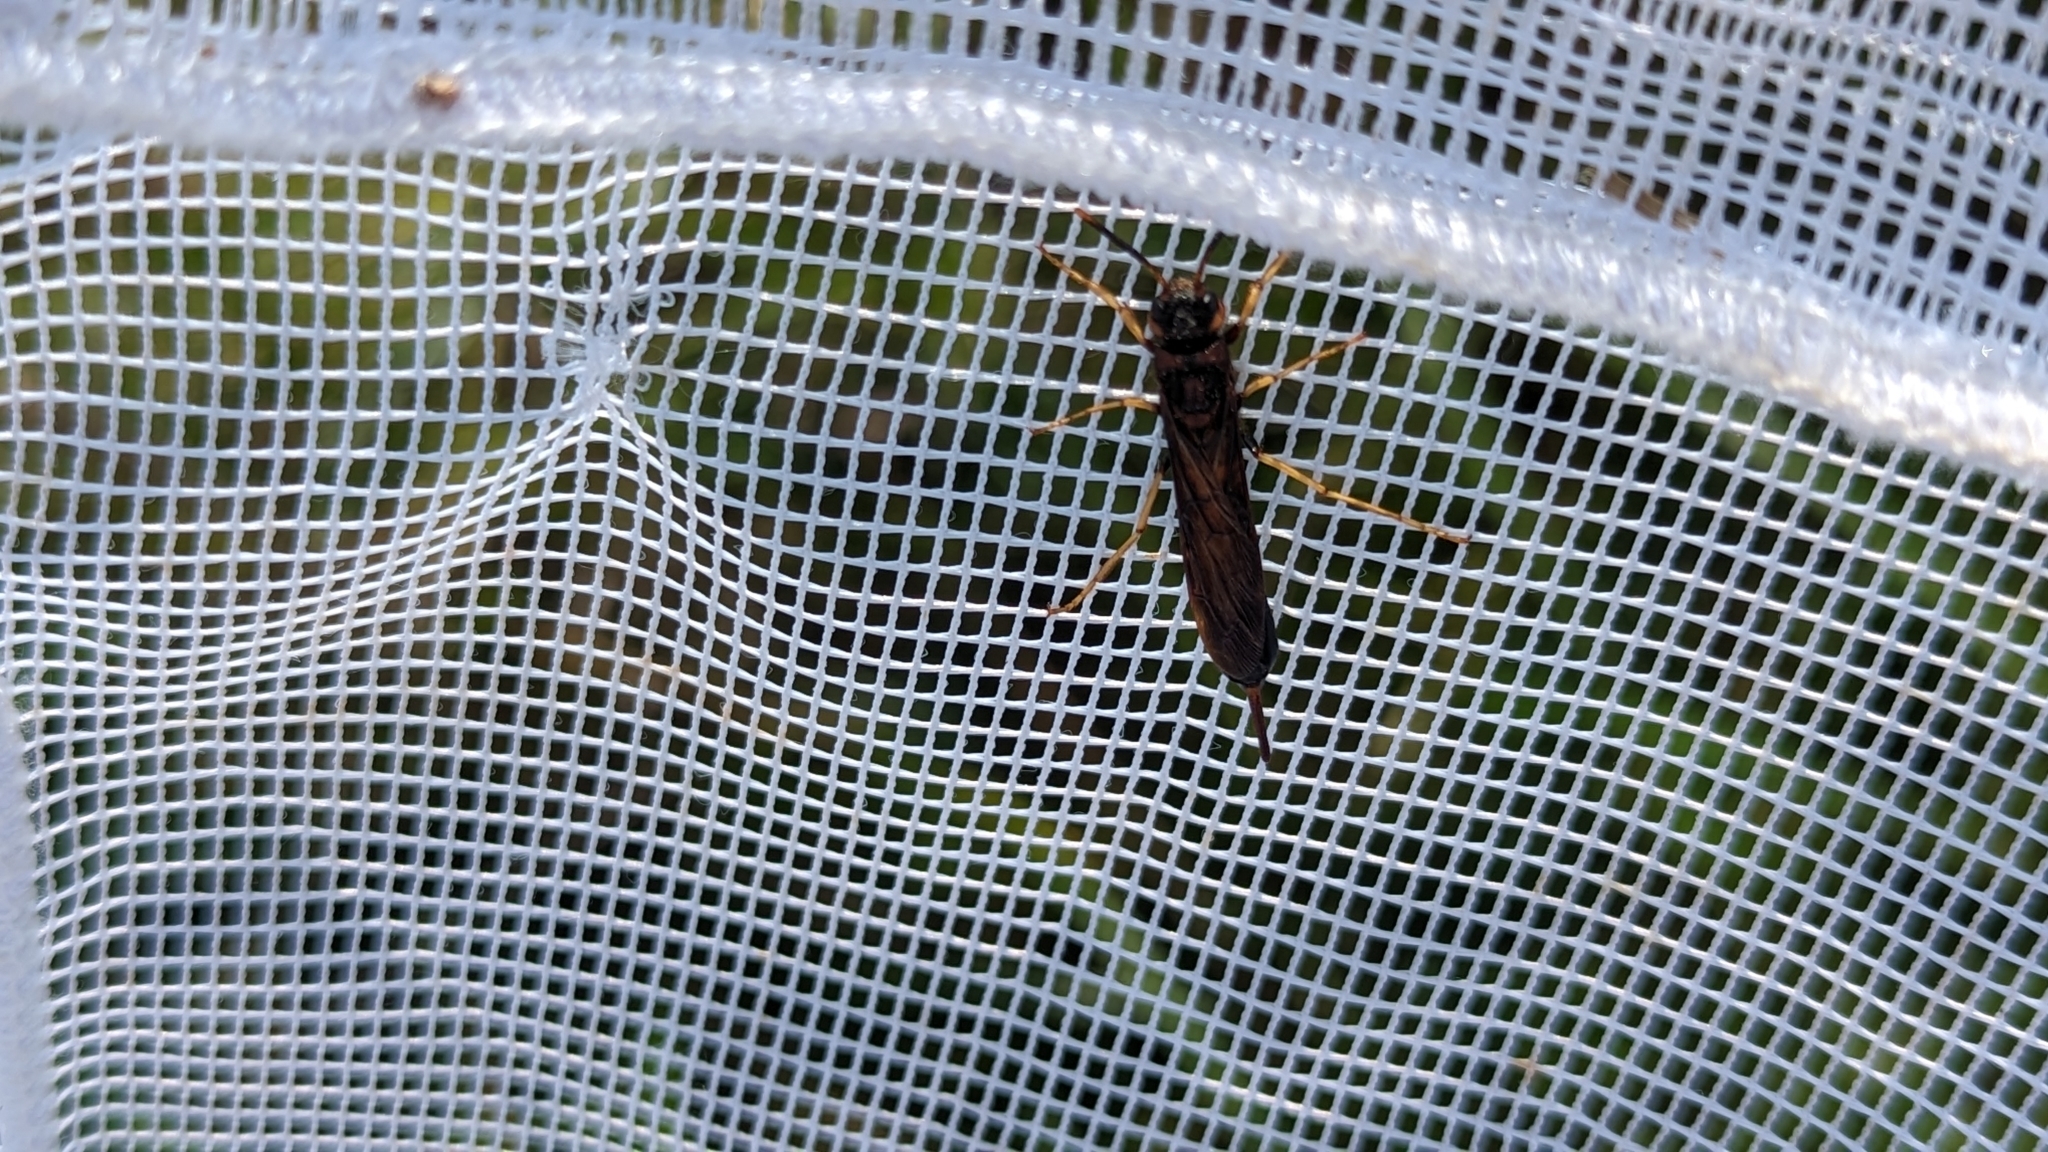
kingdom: Animalia
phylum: Arthropoda
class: Insecta
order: Hymenoptera
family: Siricidae
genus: Tremex
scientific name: Tremex columba
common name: Wasp
